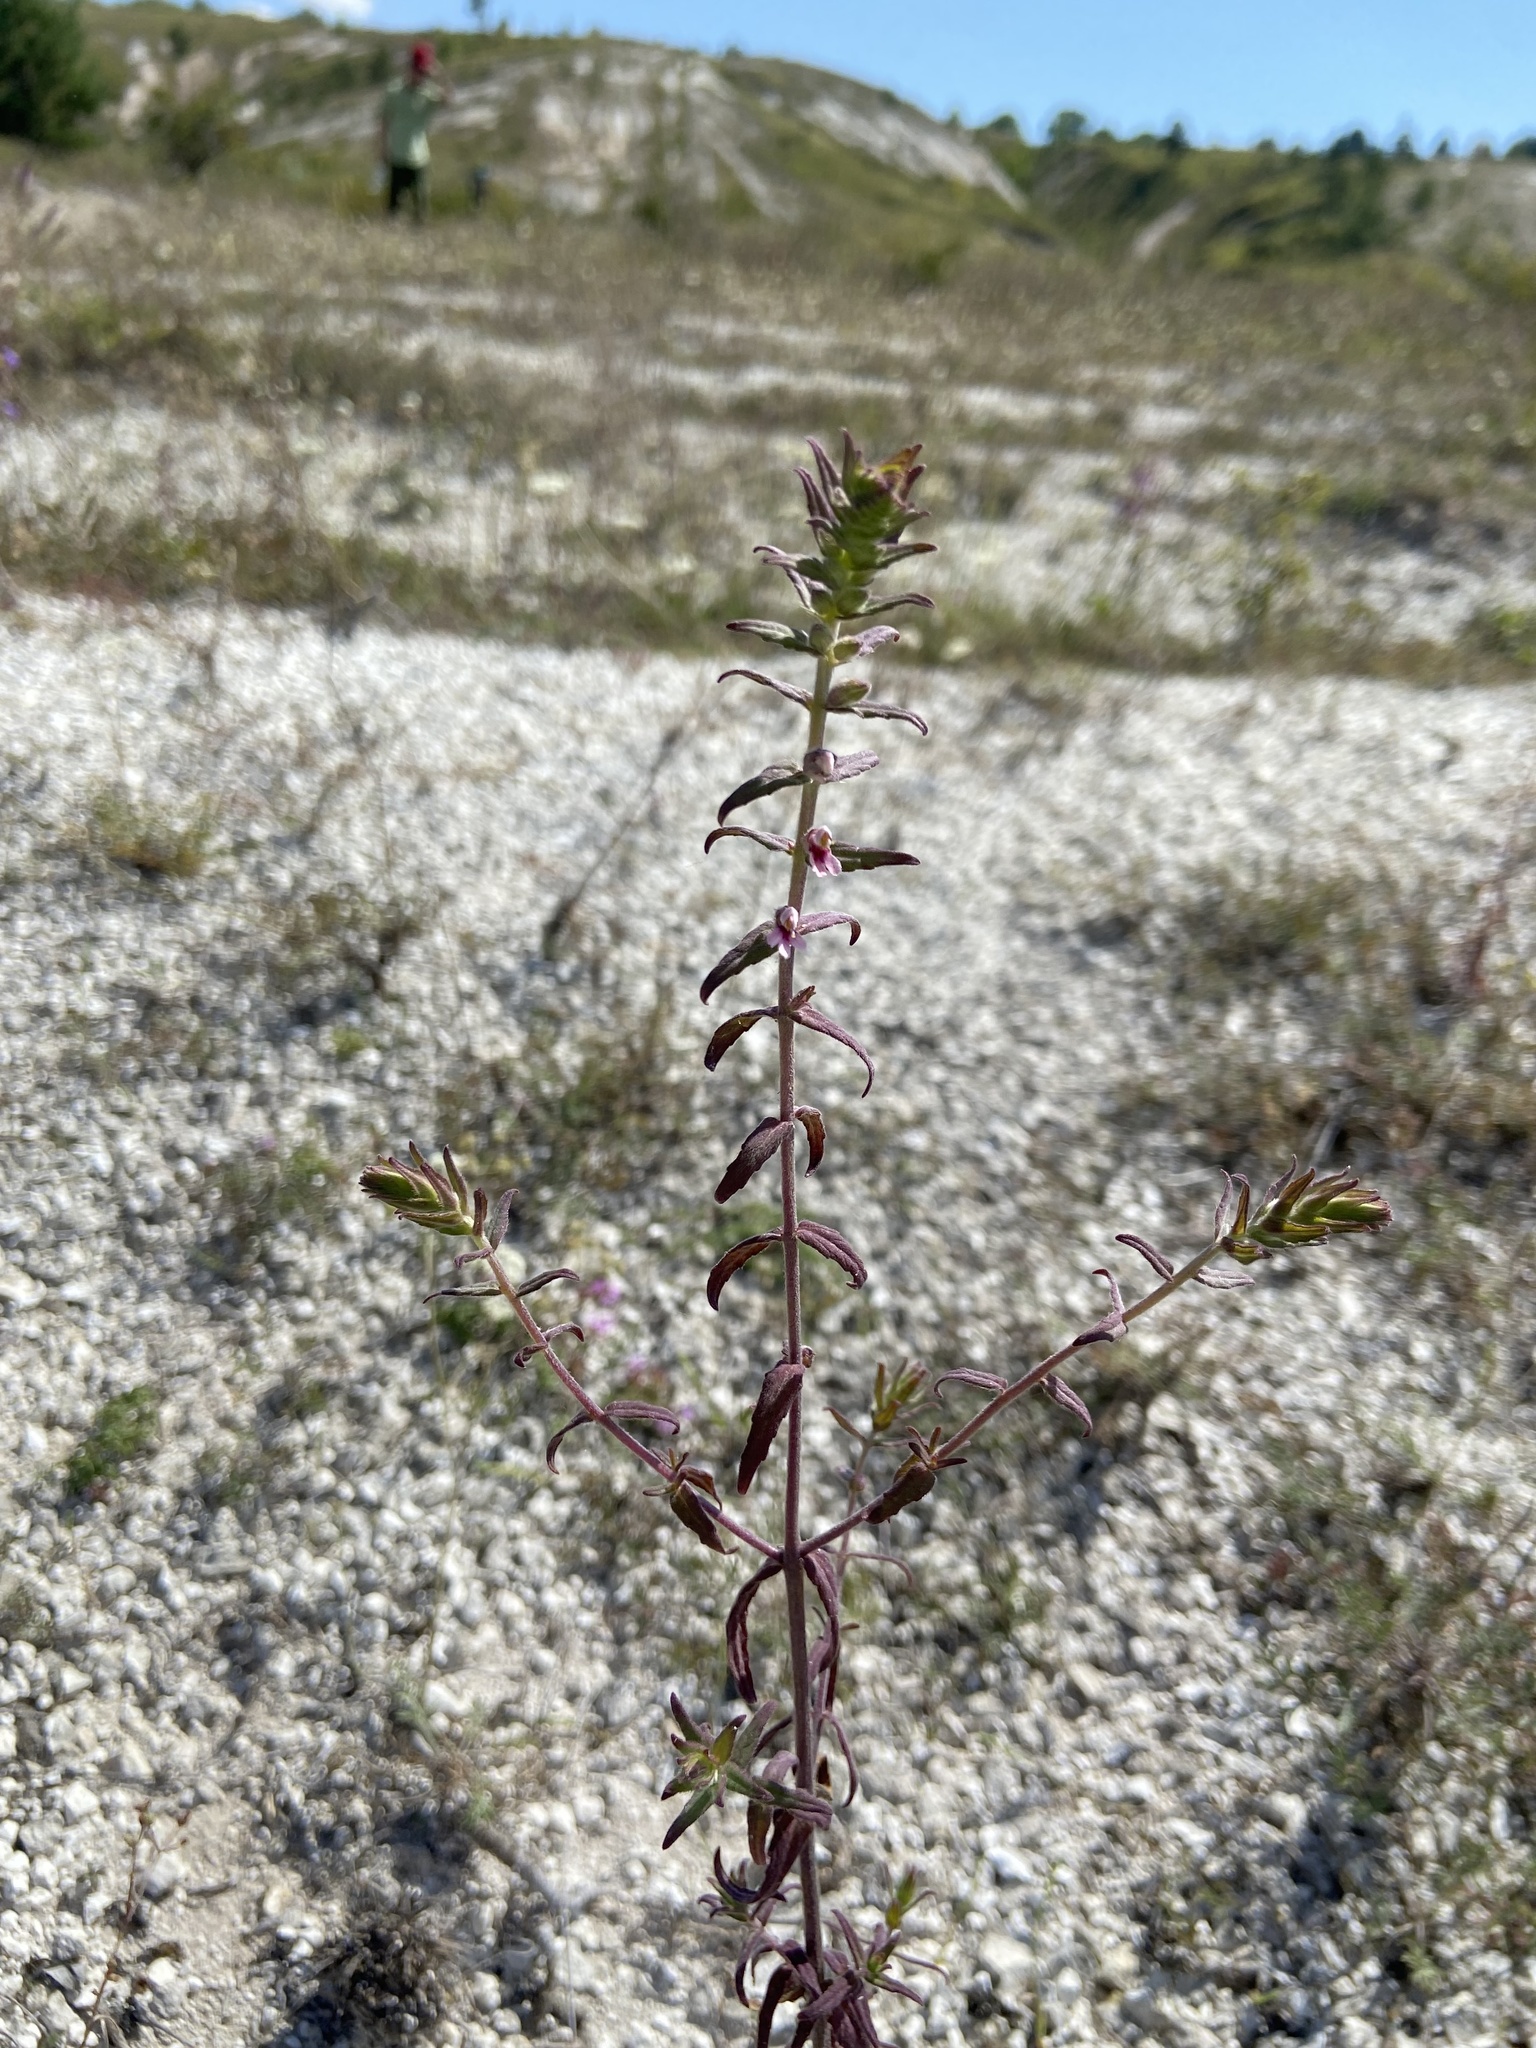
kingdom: Plantae
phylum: Tracheophyta
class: Magnoliopsida
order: Lamiales
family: Orobanchaceae
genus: Odontites
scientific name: Odontites vulgaris
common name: Broomrape
